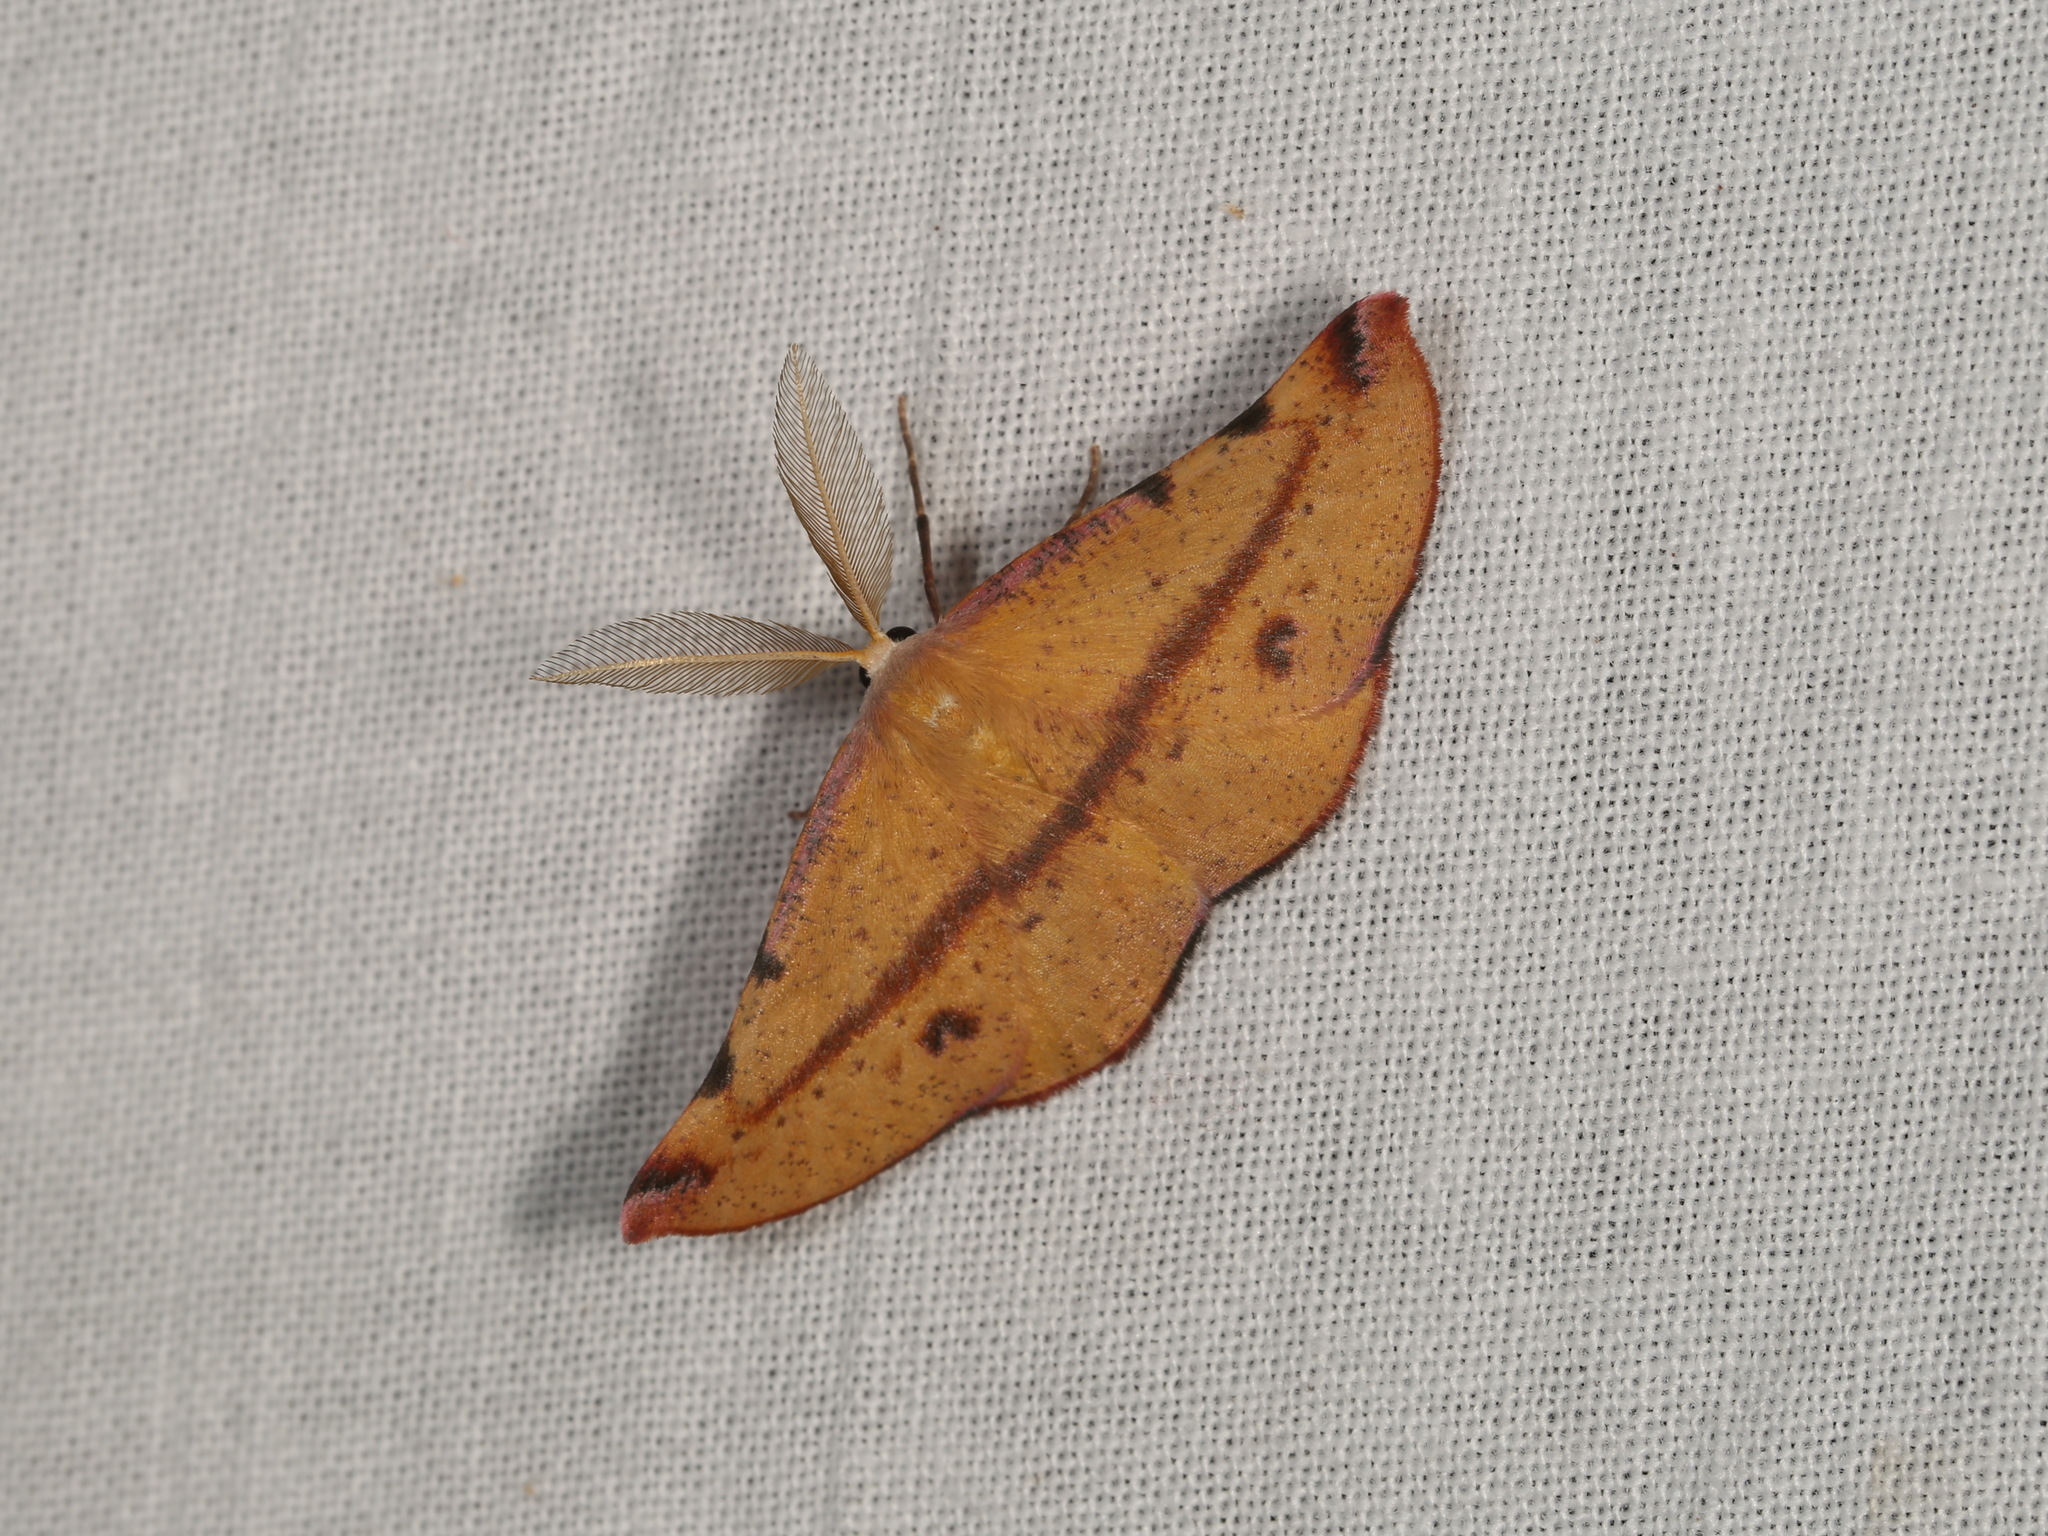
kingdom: Animalia
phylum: Arthropoda
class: Insecta
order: Lepidoptera
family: Geometridae
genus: Onycodes
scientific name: Onycodes traumataria
